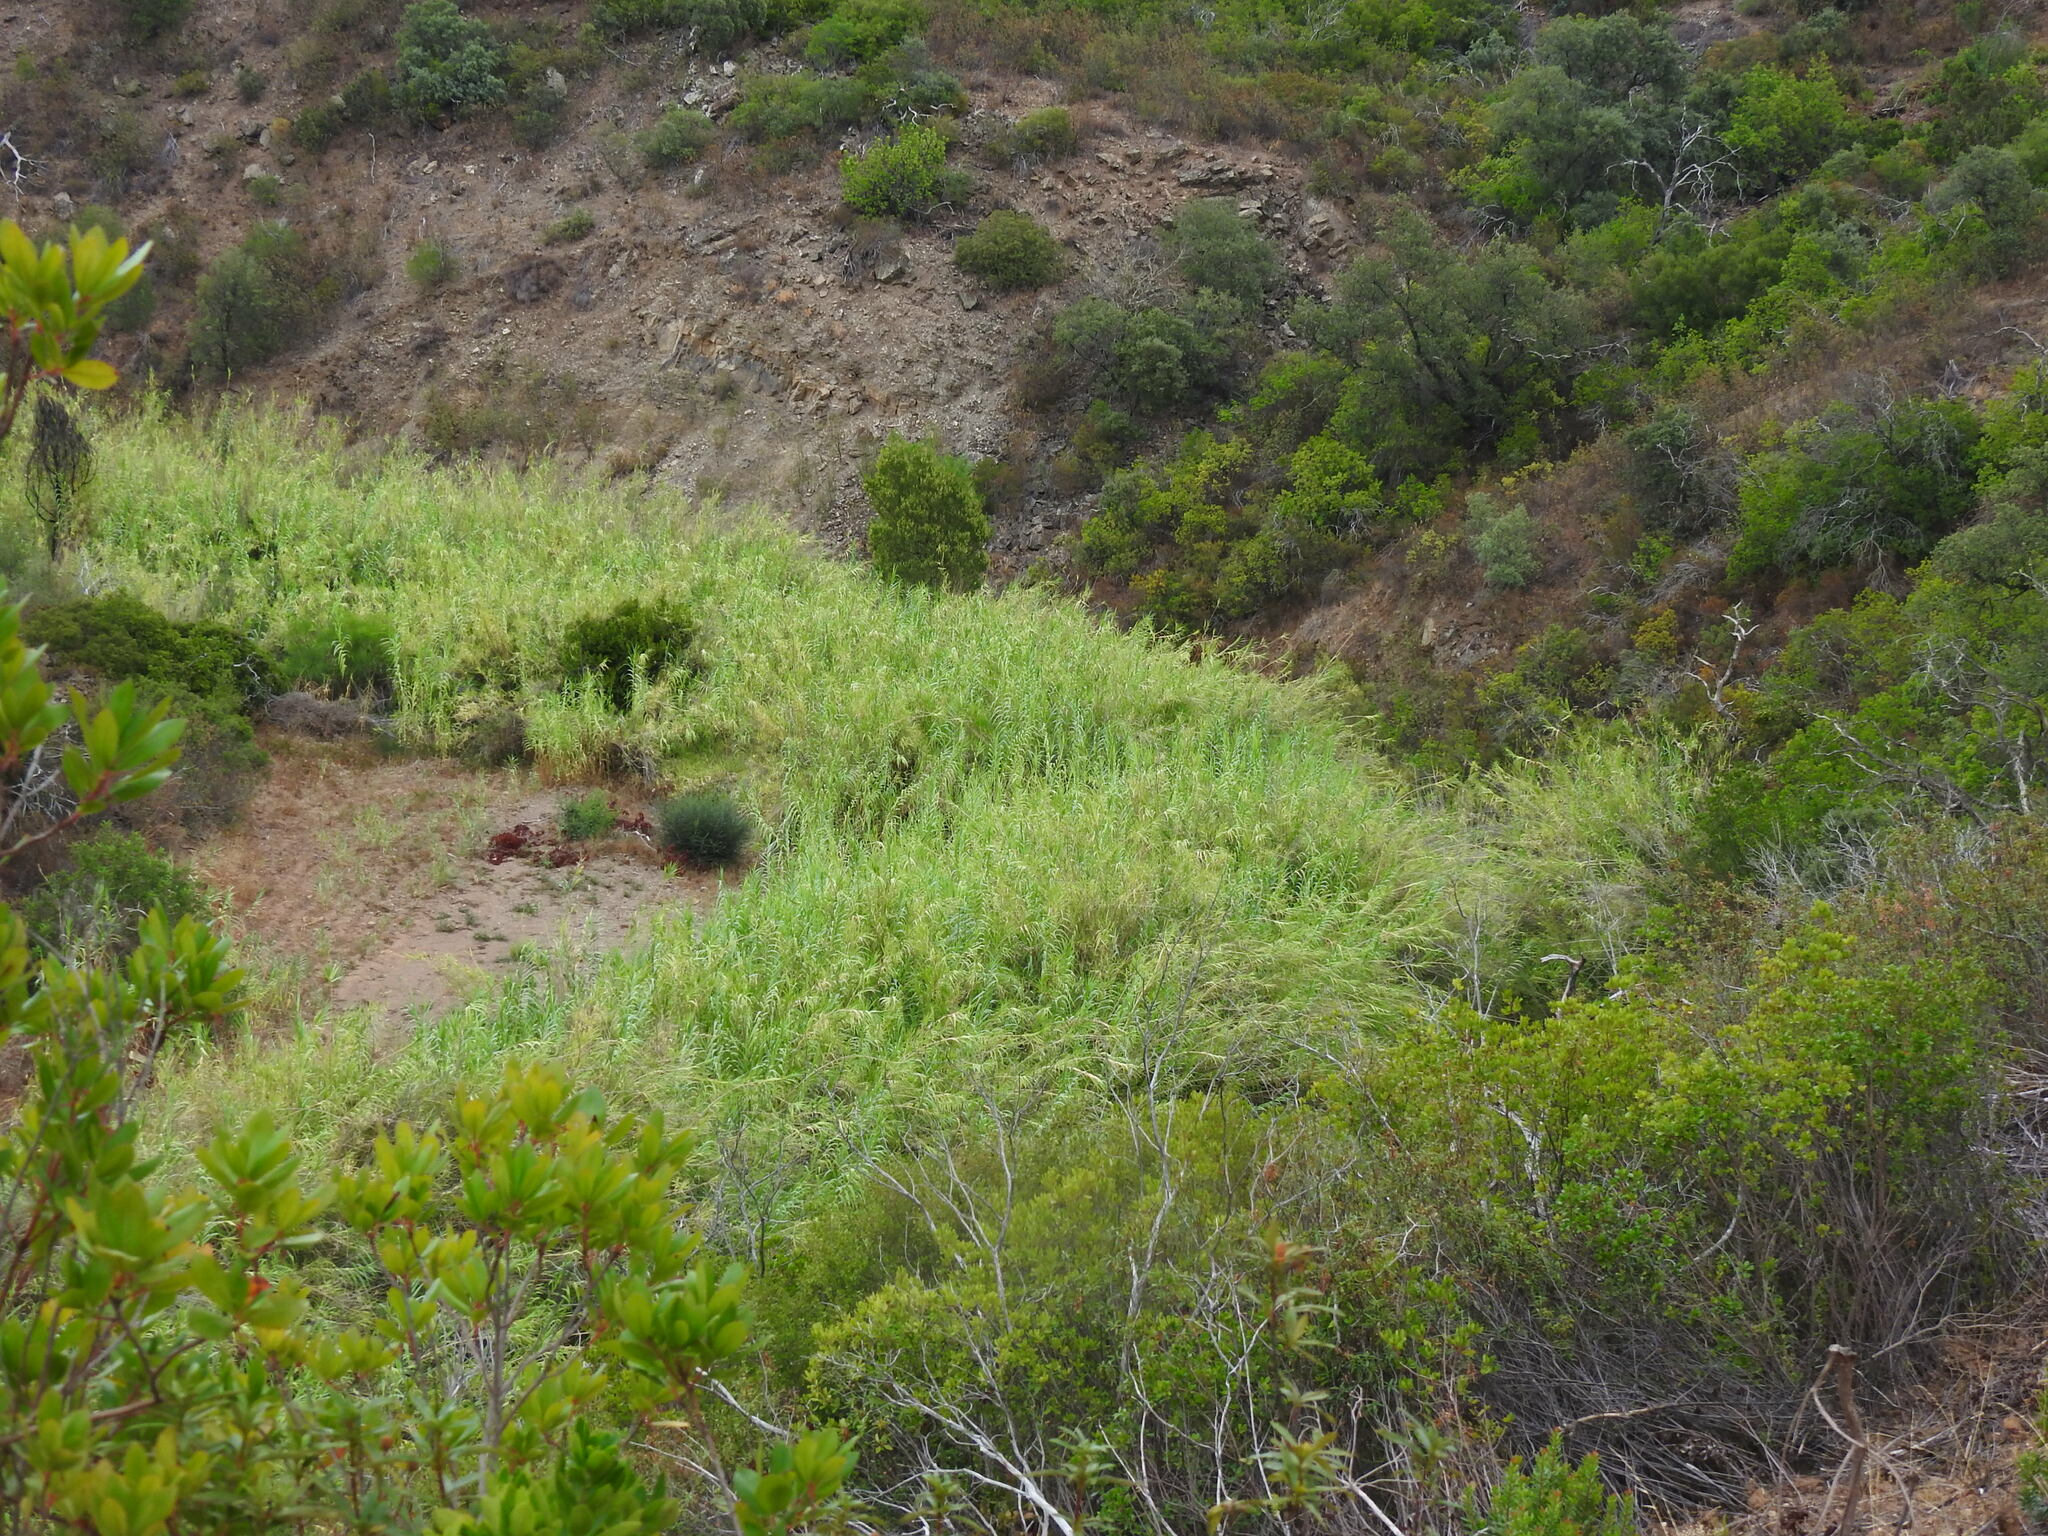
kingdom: Plantae
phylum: Tracheophyta
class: Liliopsida
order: Poales
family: Poaceae
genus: Arundo
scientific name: Arundo donax
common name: Giant reed
